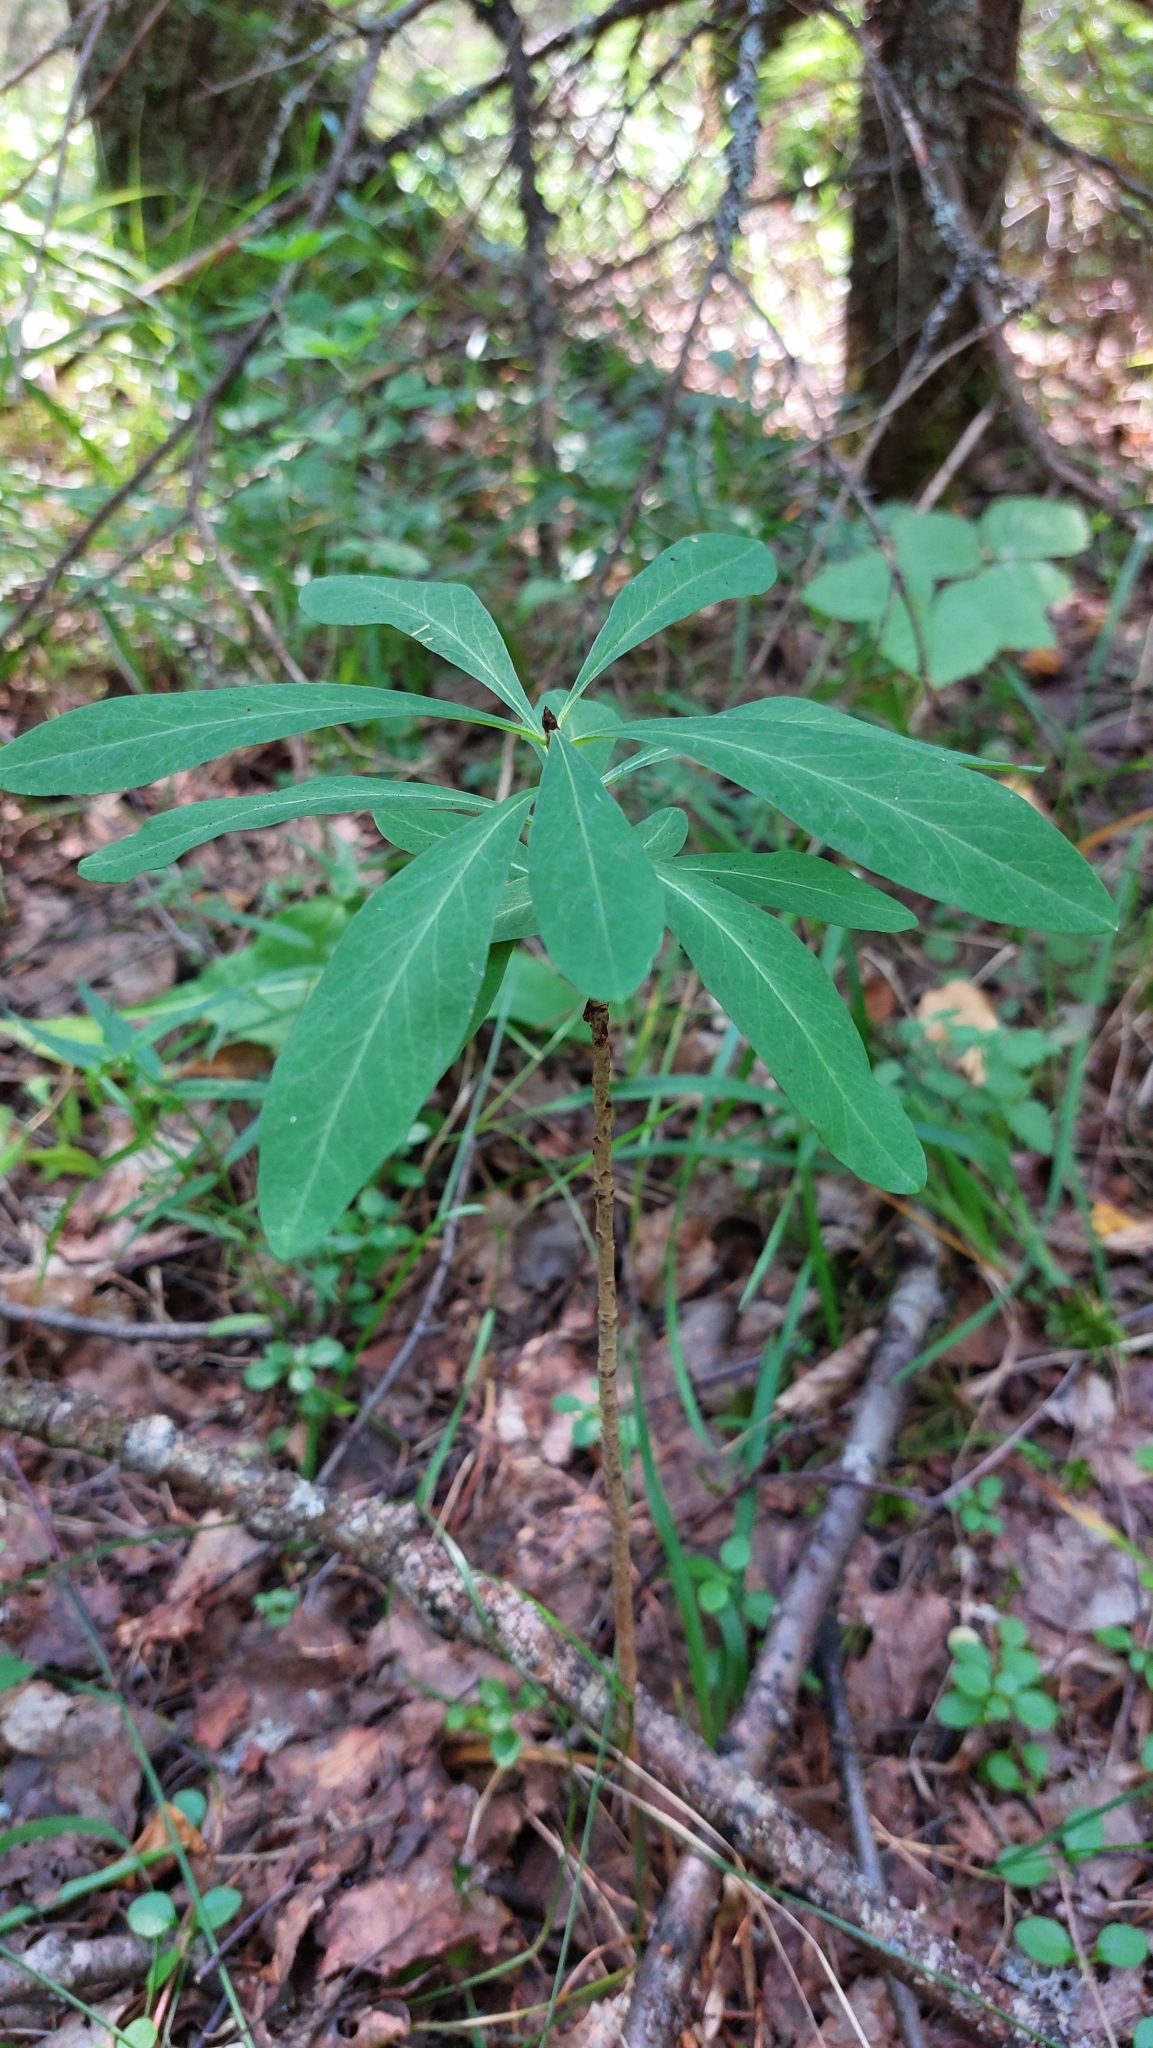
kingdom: Plantae
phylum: Tracheophyta
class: Magnoliopsida
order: Malvales
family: Thymelaeaceae
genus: Daphne
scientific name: Daphne mezereum
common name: Mezereon
